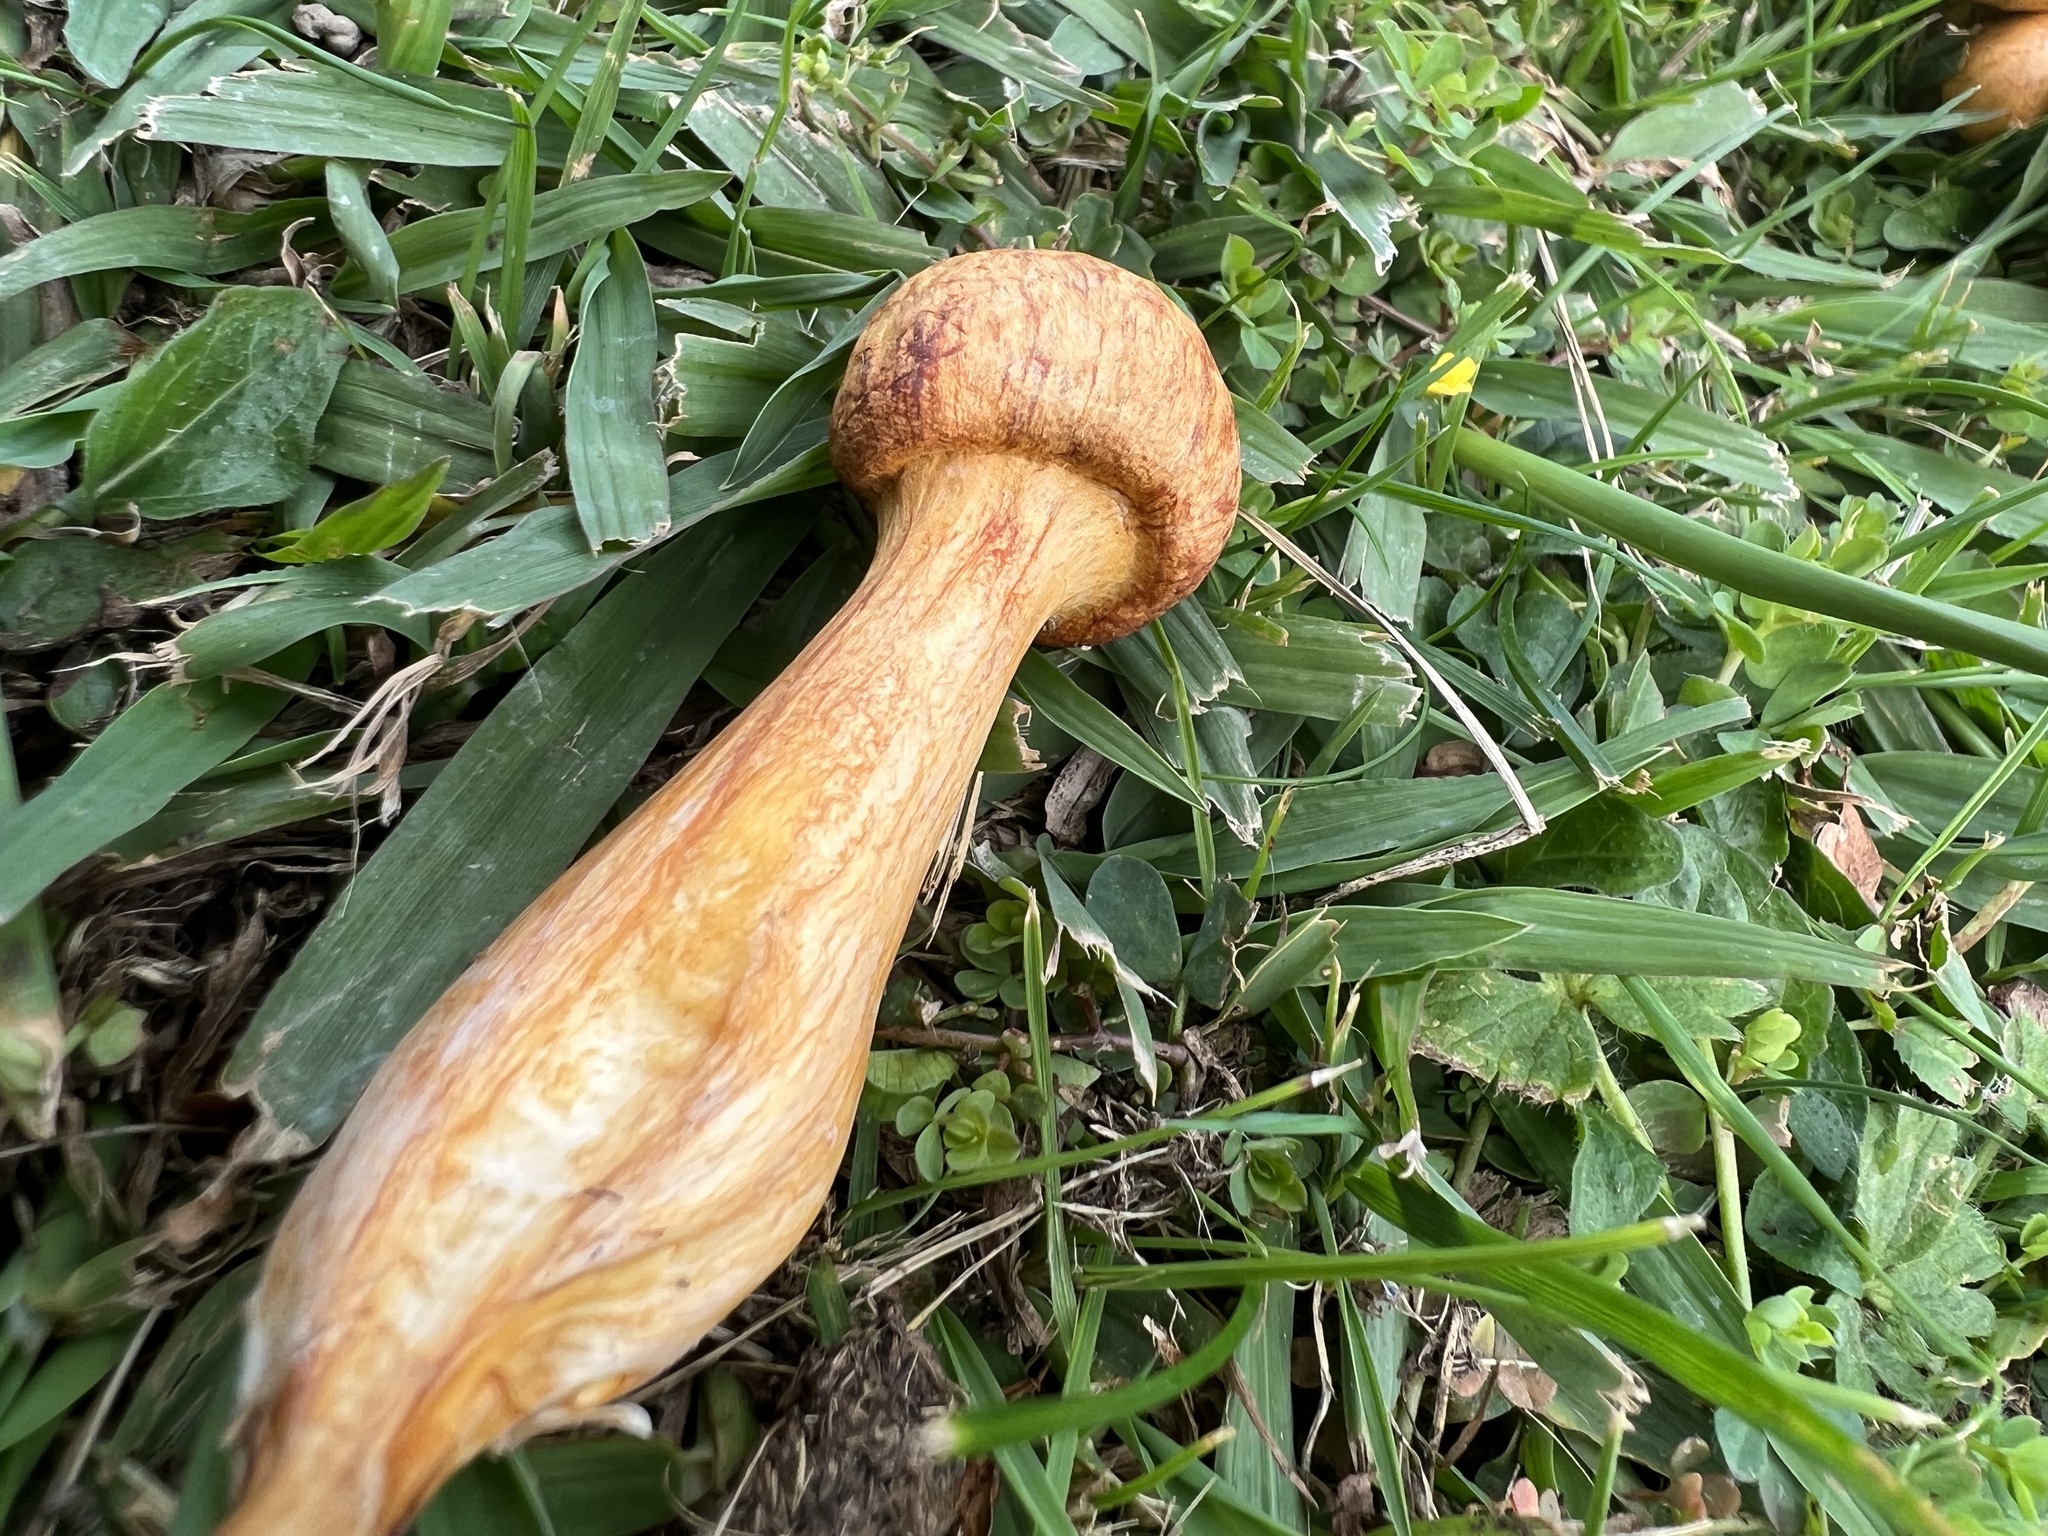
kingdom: Fungi
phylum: Basidiomycota
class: Agaricomycetes
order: Agaricales
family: Hymenogastraceae
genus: Gymnopilus
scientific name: Gymnopilus junonius
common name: Spectacular rustgill
